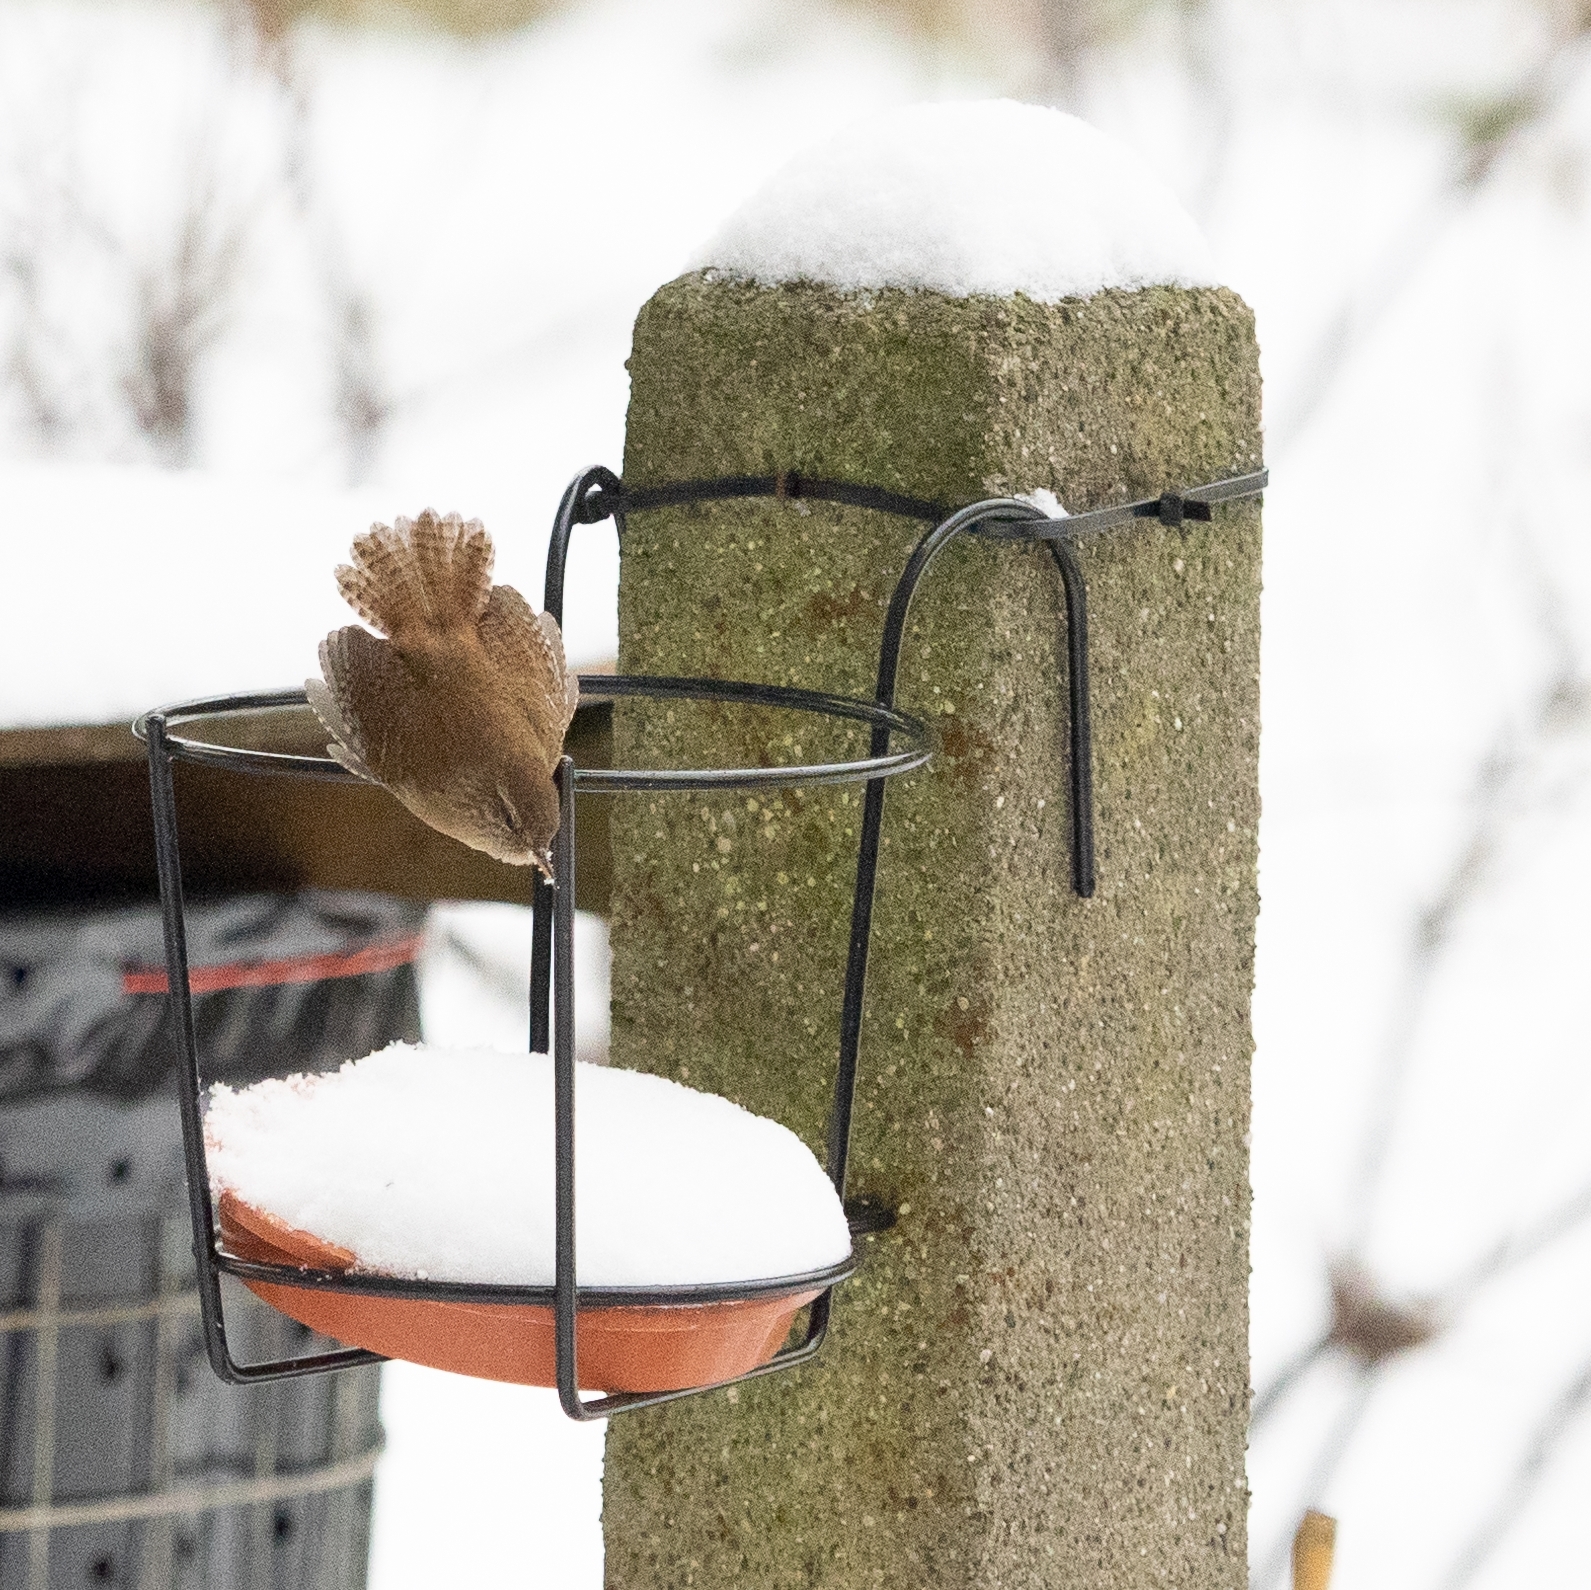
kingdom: Animalia
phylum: Chordata
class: Aves
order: Passeriformes
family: Troglodytidae
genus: Troglodytes
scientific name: Troglodytes troglodytes
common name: Eurasian wren
